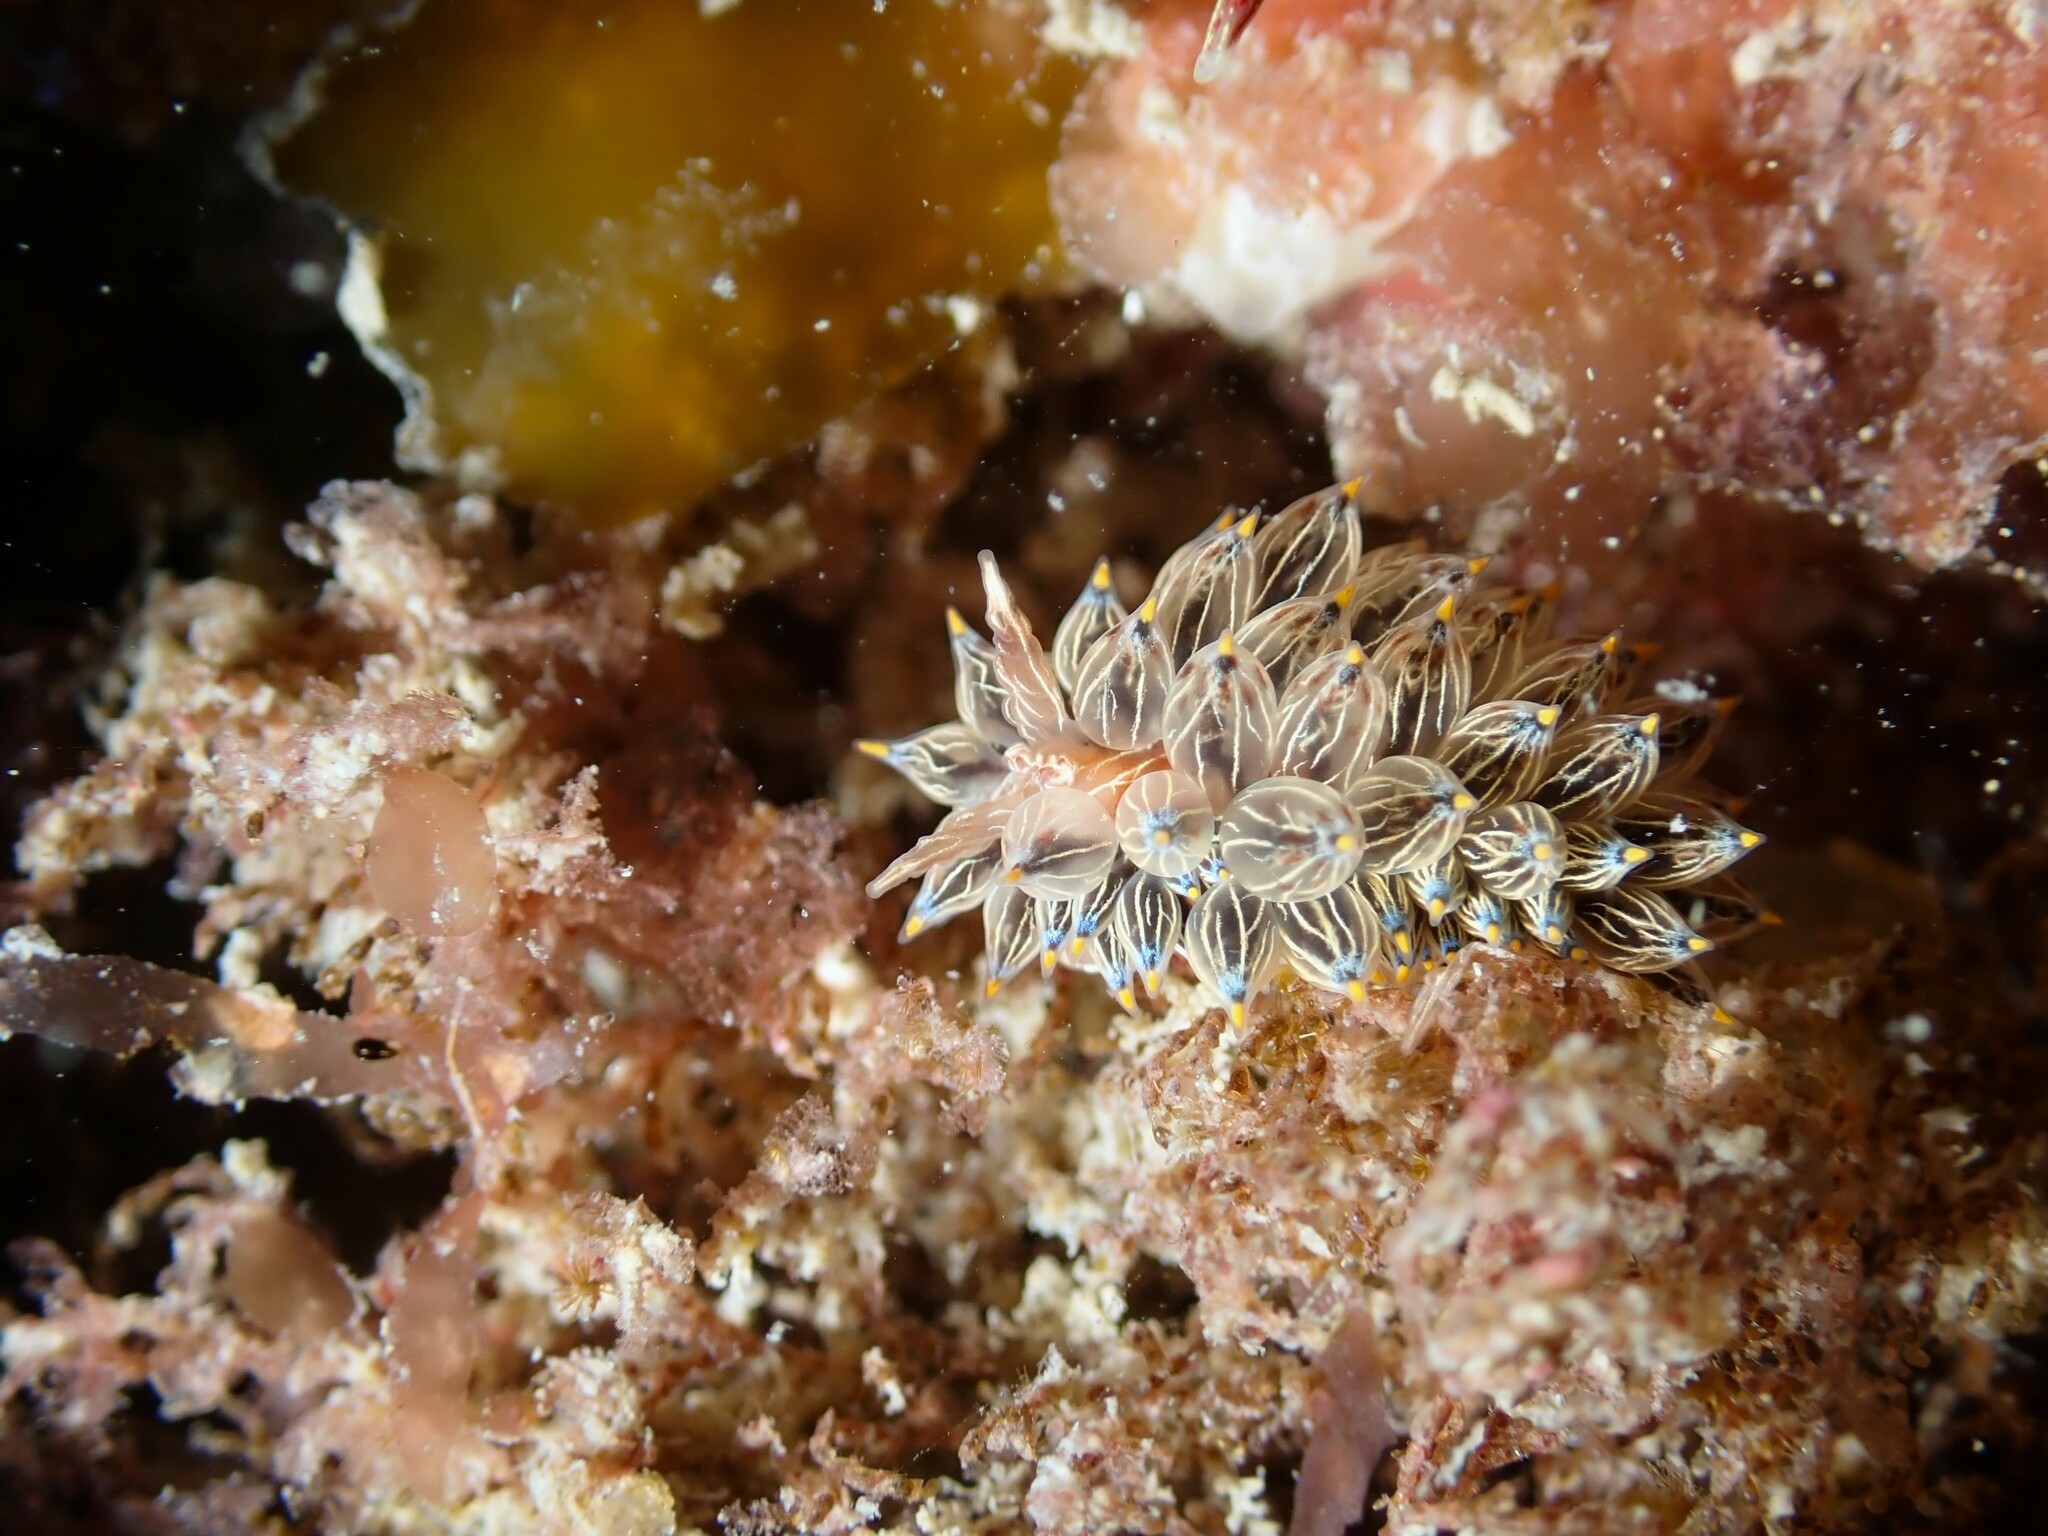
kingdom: Animalia
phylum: Mollusca
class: Gastropoda
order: Nudibranchia
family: Janolidae
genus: Janolus
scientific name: Janolus eximius
